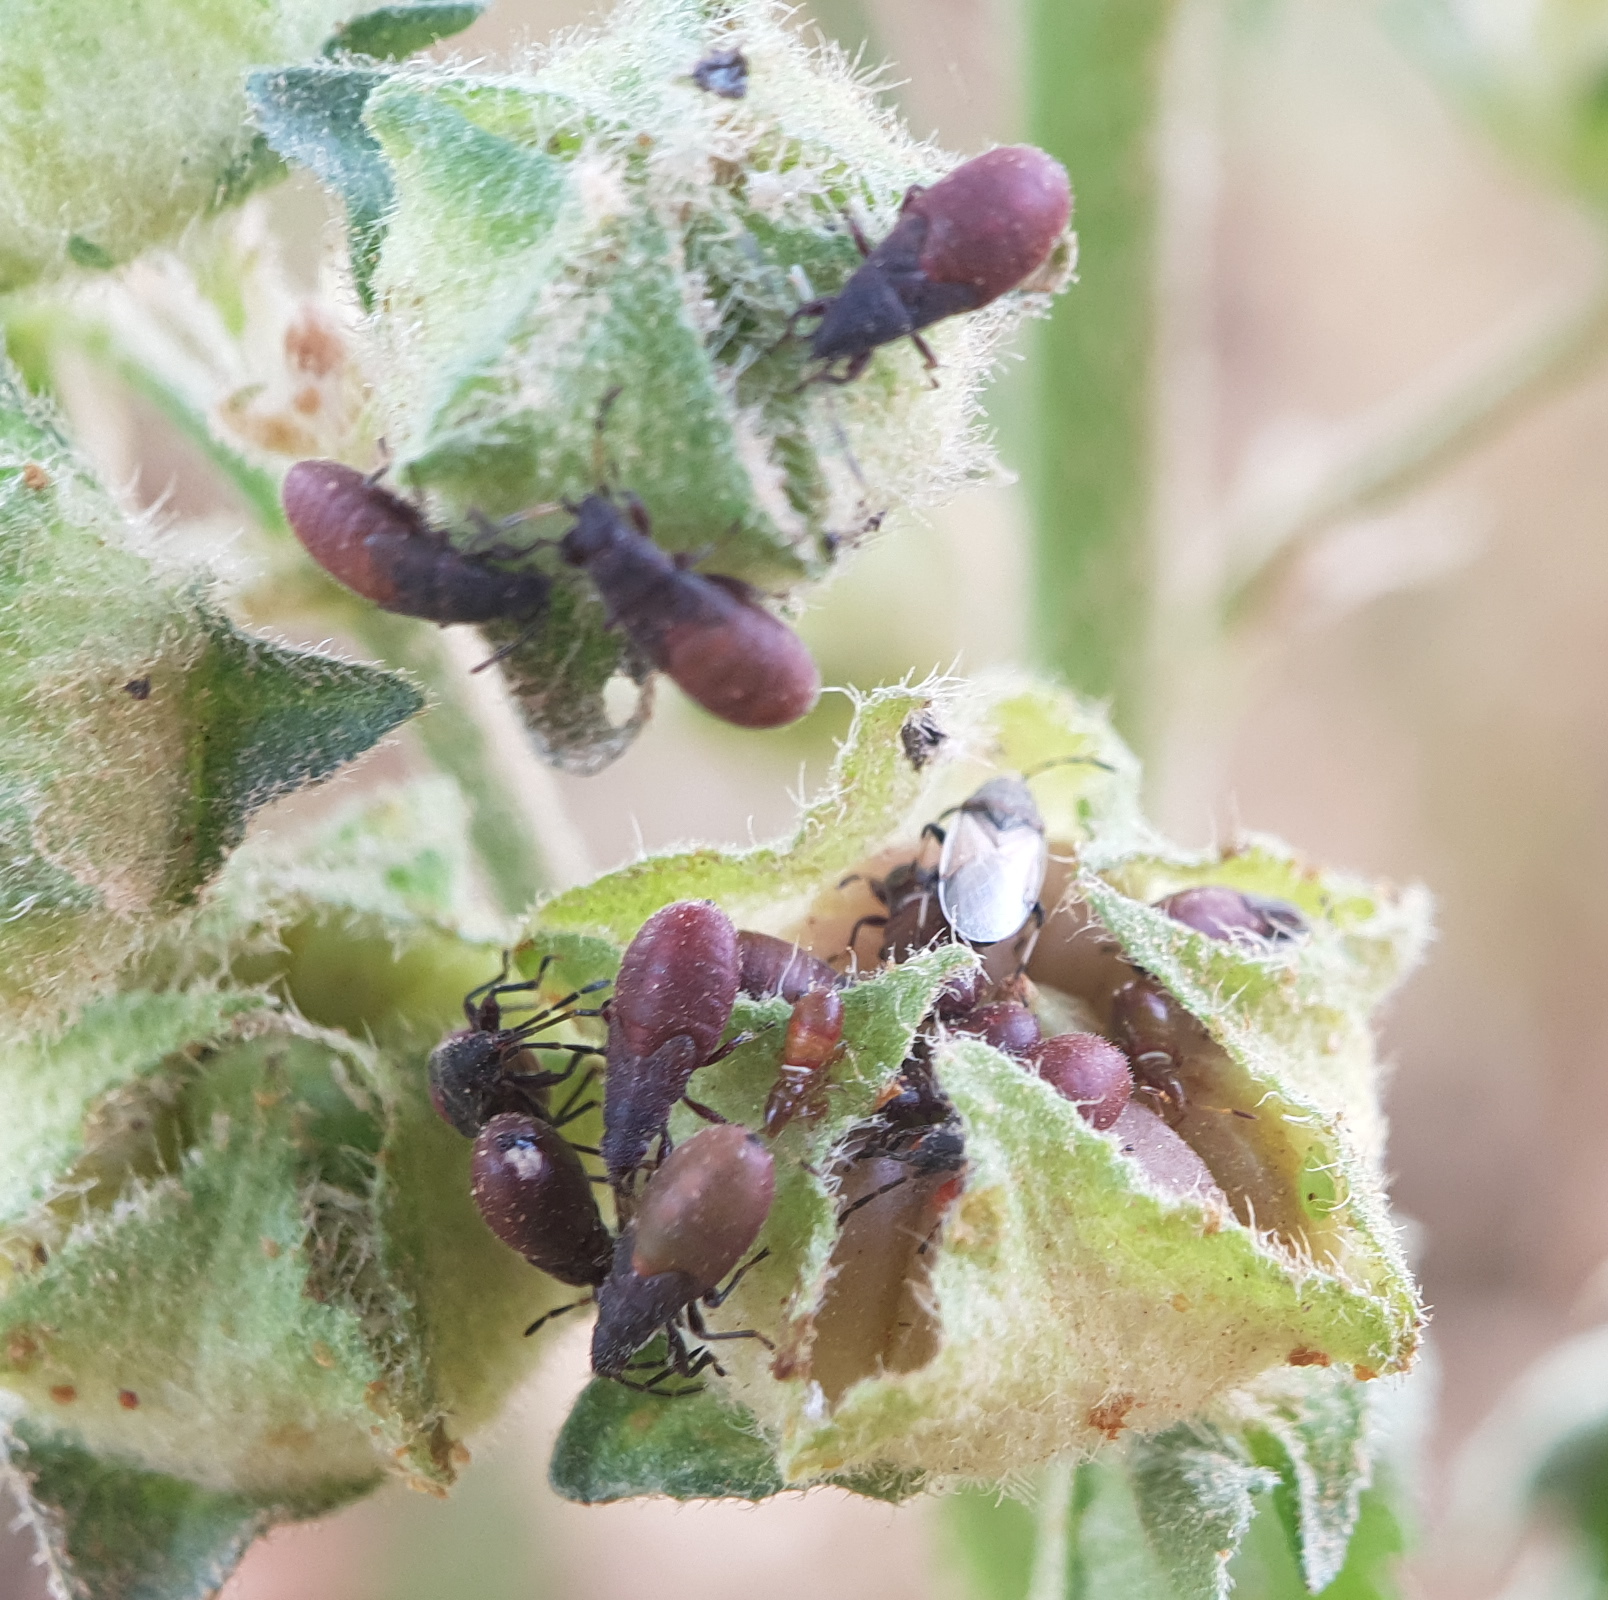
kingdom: Animalia
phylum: Arthropoda
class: Insecta
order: Hemiptera
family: Oxycarenidae
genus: Oxycarenus
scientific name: Oxycarenus hyalinipennis
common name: Cotton seed bug
